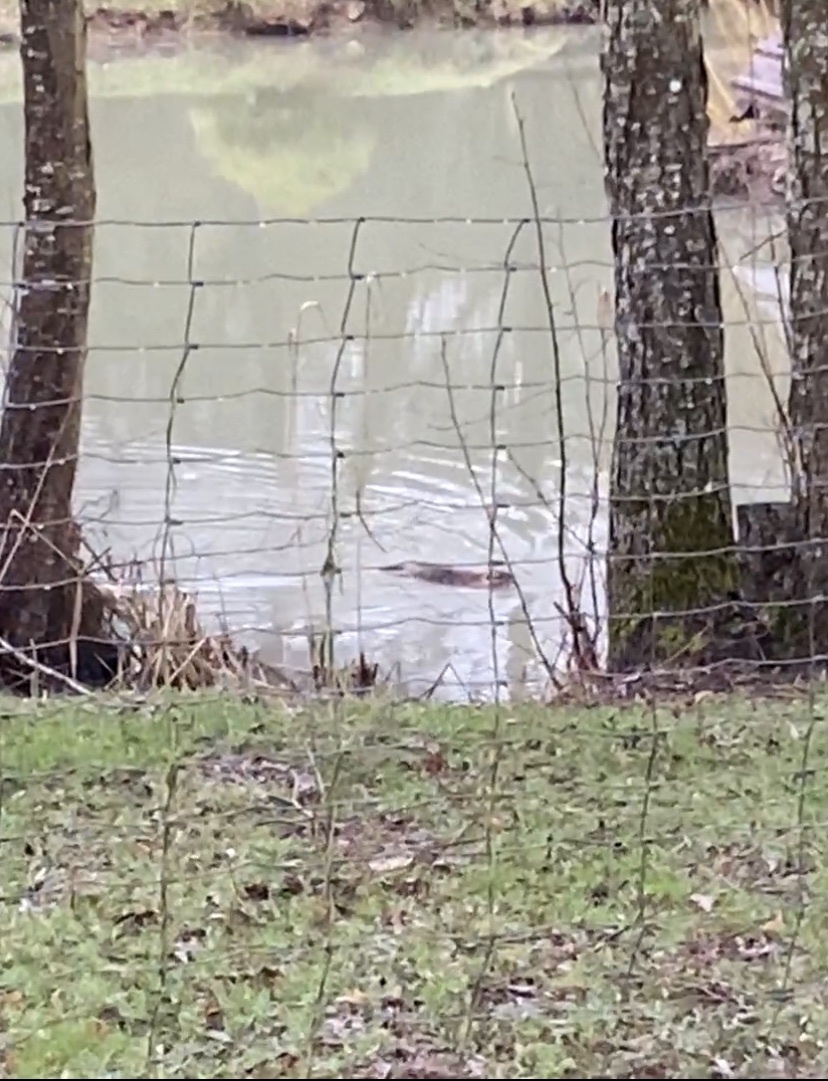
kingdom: Animalia
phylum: Chordata
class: Mammalia
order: Rodentia
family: Myocastoridae
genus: Myocastor
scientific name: Myocastor coypus
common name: Coypu
